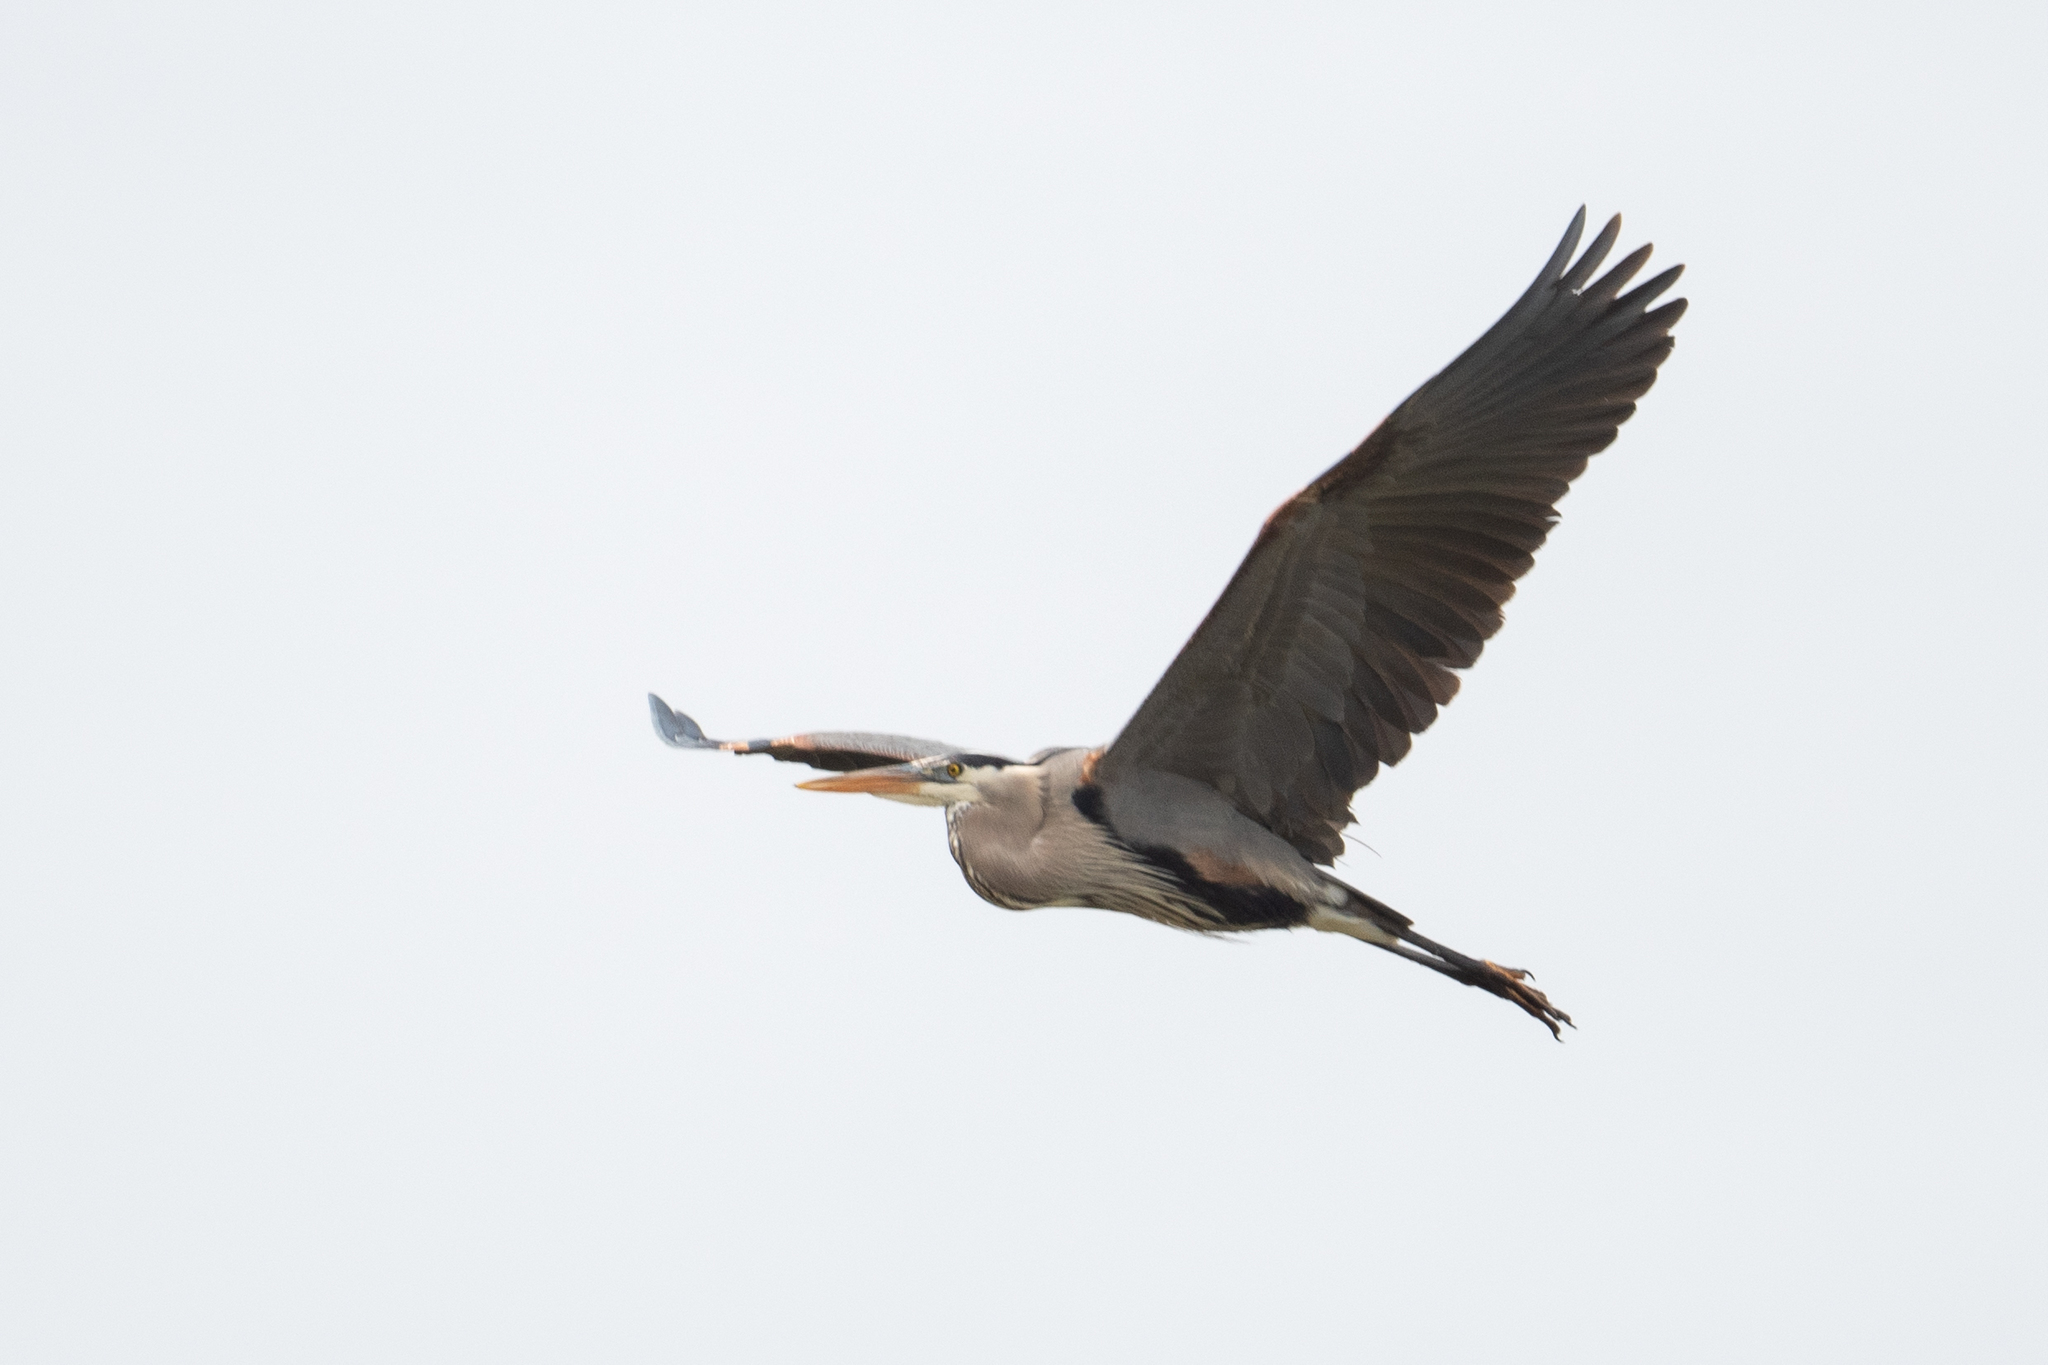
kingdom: Animalia
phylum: Chordata
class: Aves
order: Pelecaniformes
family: Ardeidae
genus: Ardea
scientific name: Ardea herodias
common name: Great blue heron
